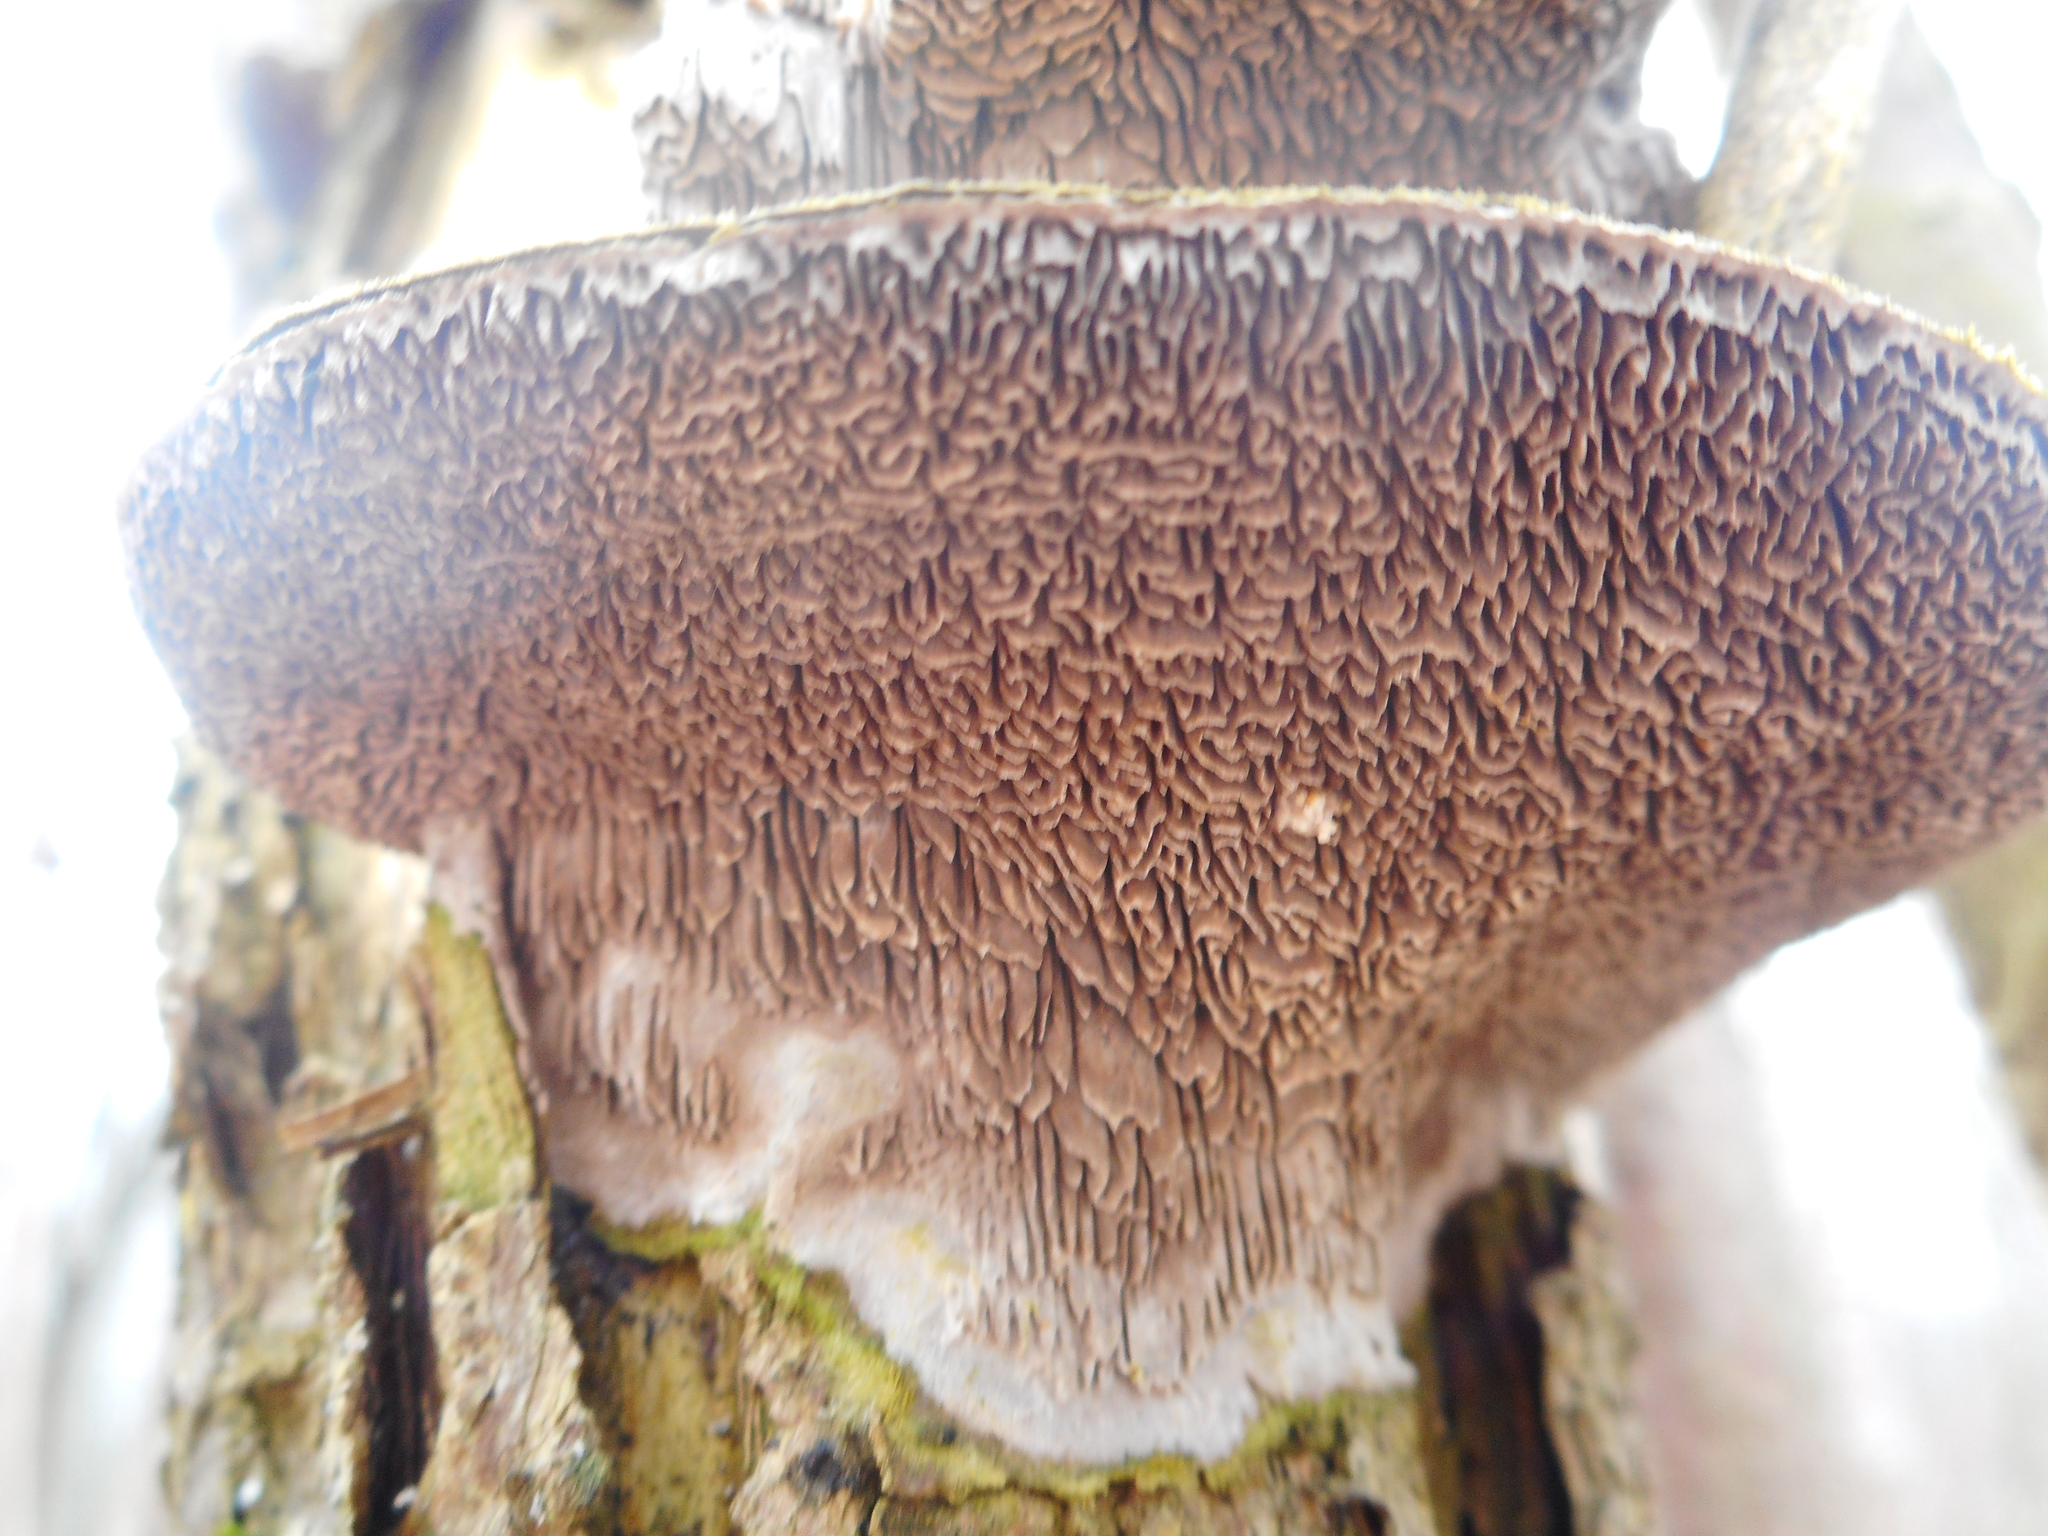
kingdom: Fungi
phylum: Basidiomycota
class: Agaricomycetes
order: Polyporales
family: Cerrenaceae
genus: Cerrena
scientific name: Cerrena unicolor
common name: Mossy maze polypore
